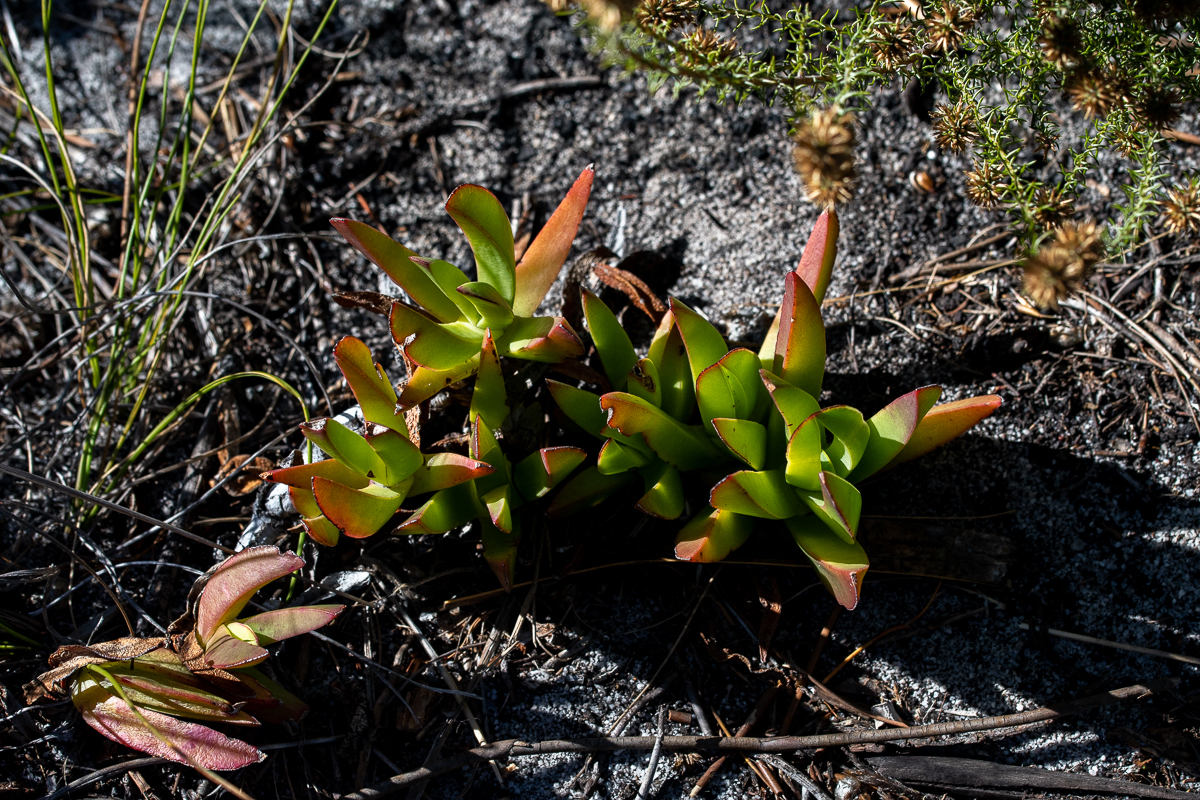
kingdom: Plantae
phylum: Tracheophyta
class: Magnoliopsida
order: Caryophyllales
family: Aizoaceae
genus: Carpobrotus
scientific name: Carpobrotus edulis
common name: Hottentot-fig
